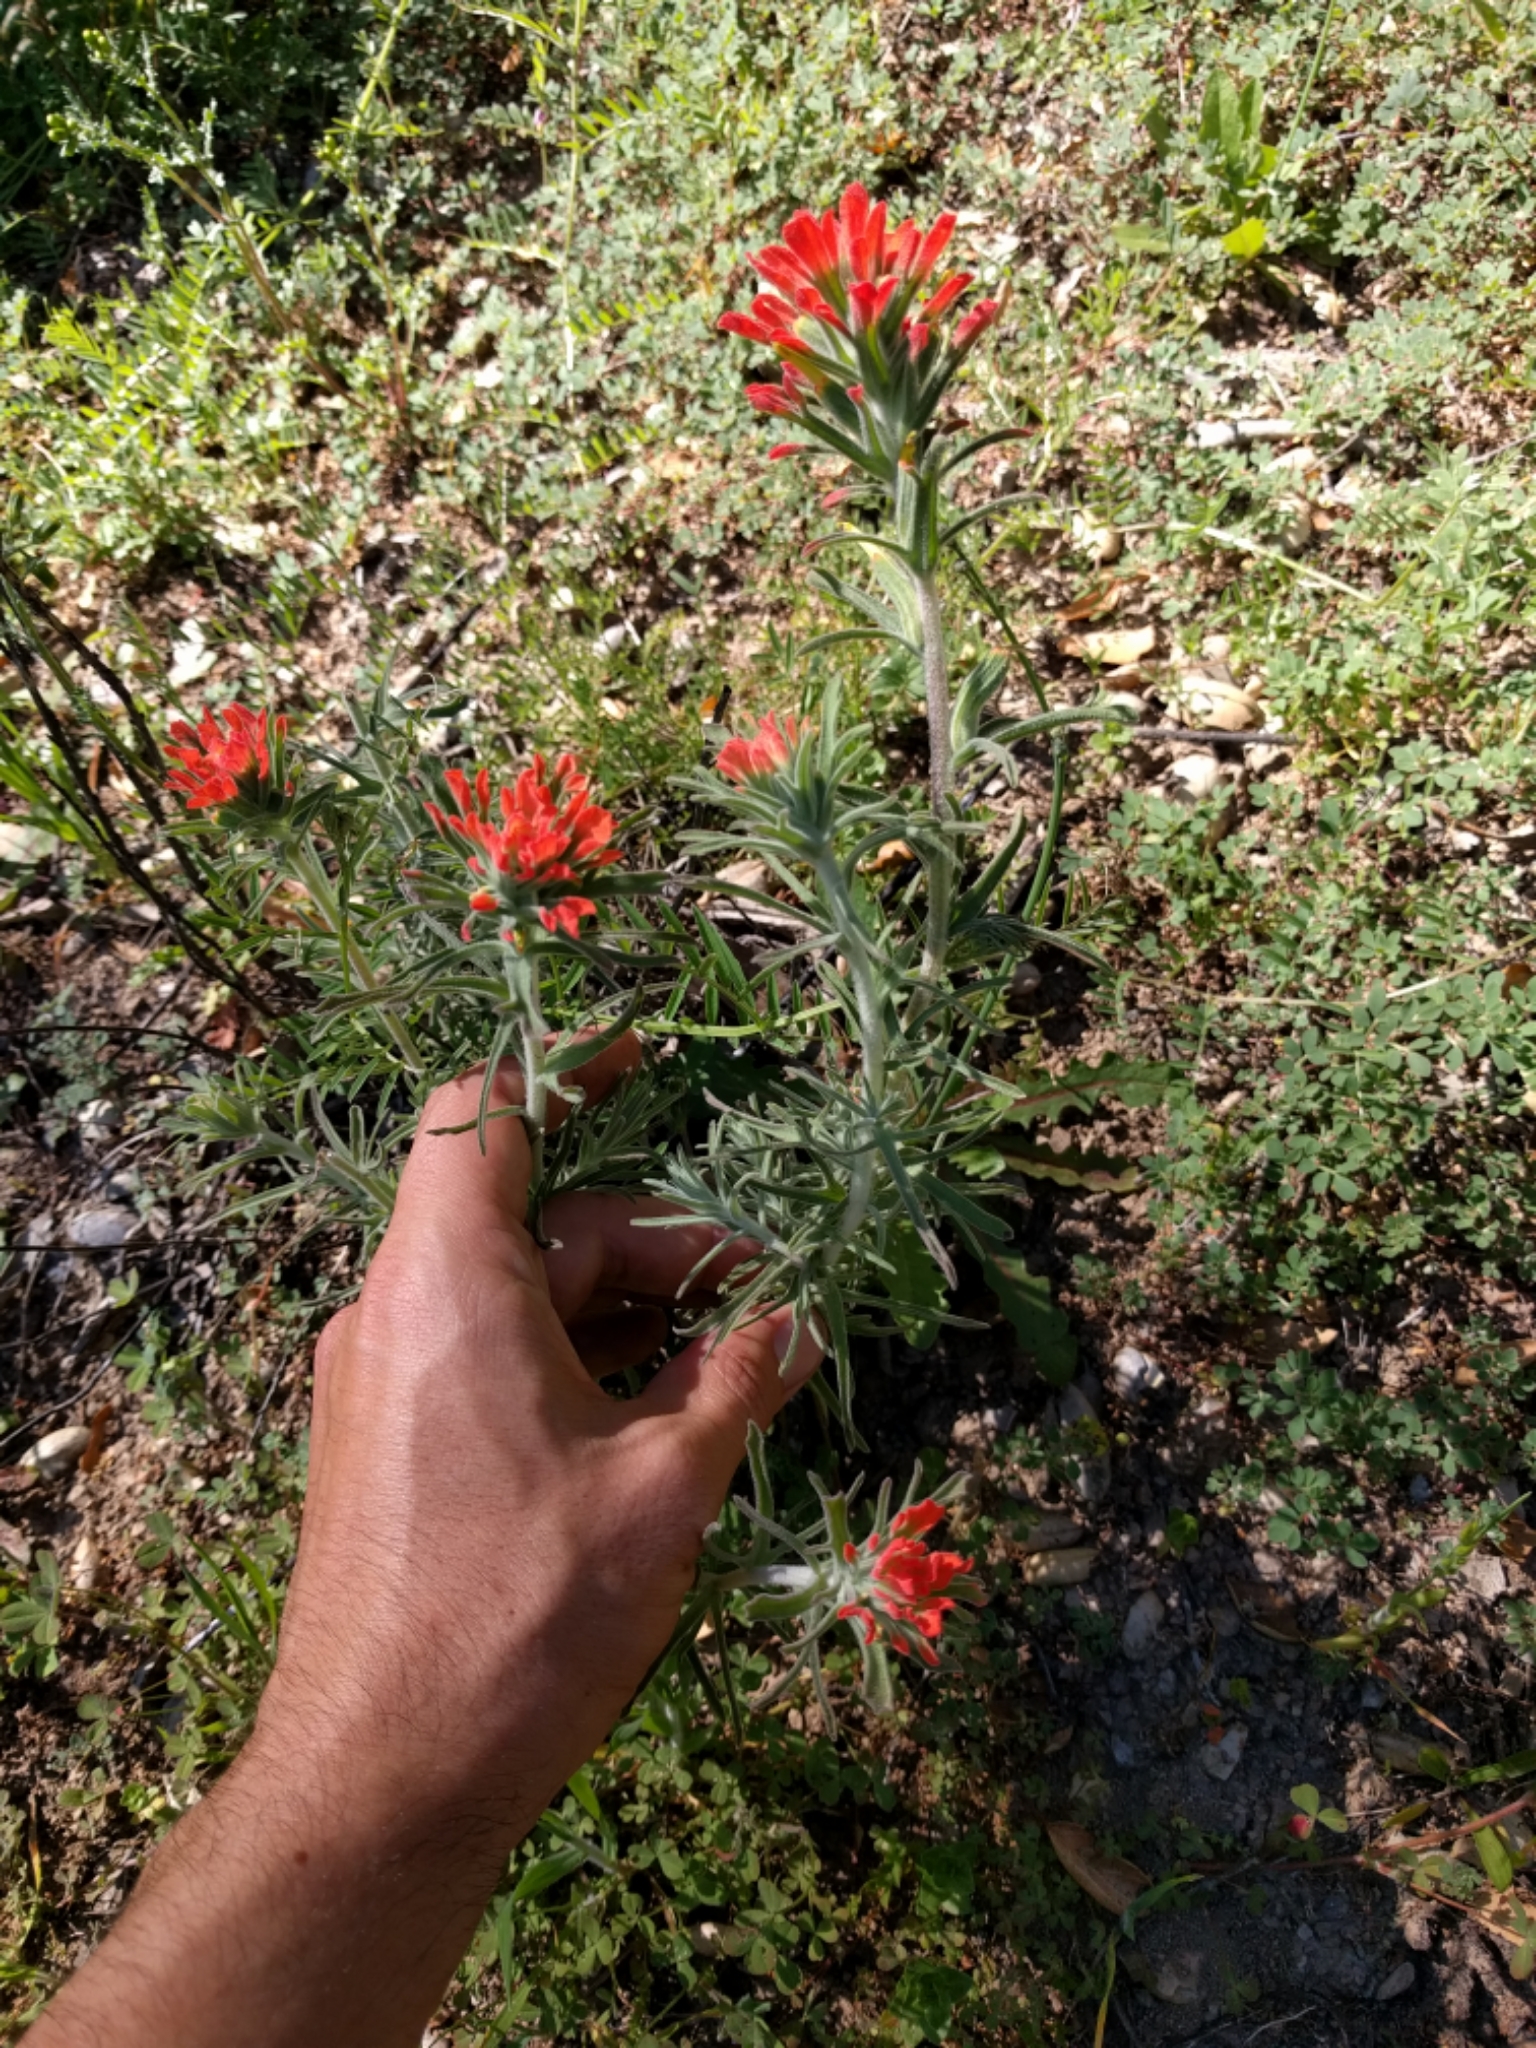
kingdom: Plantae
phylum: Tracheophyta
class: Magnoliopsida
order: Lamiales
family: Orobanchaceae
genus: Castilleja
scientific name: Castilleja foliolosa
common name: Woolly indian paintbrush
